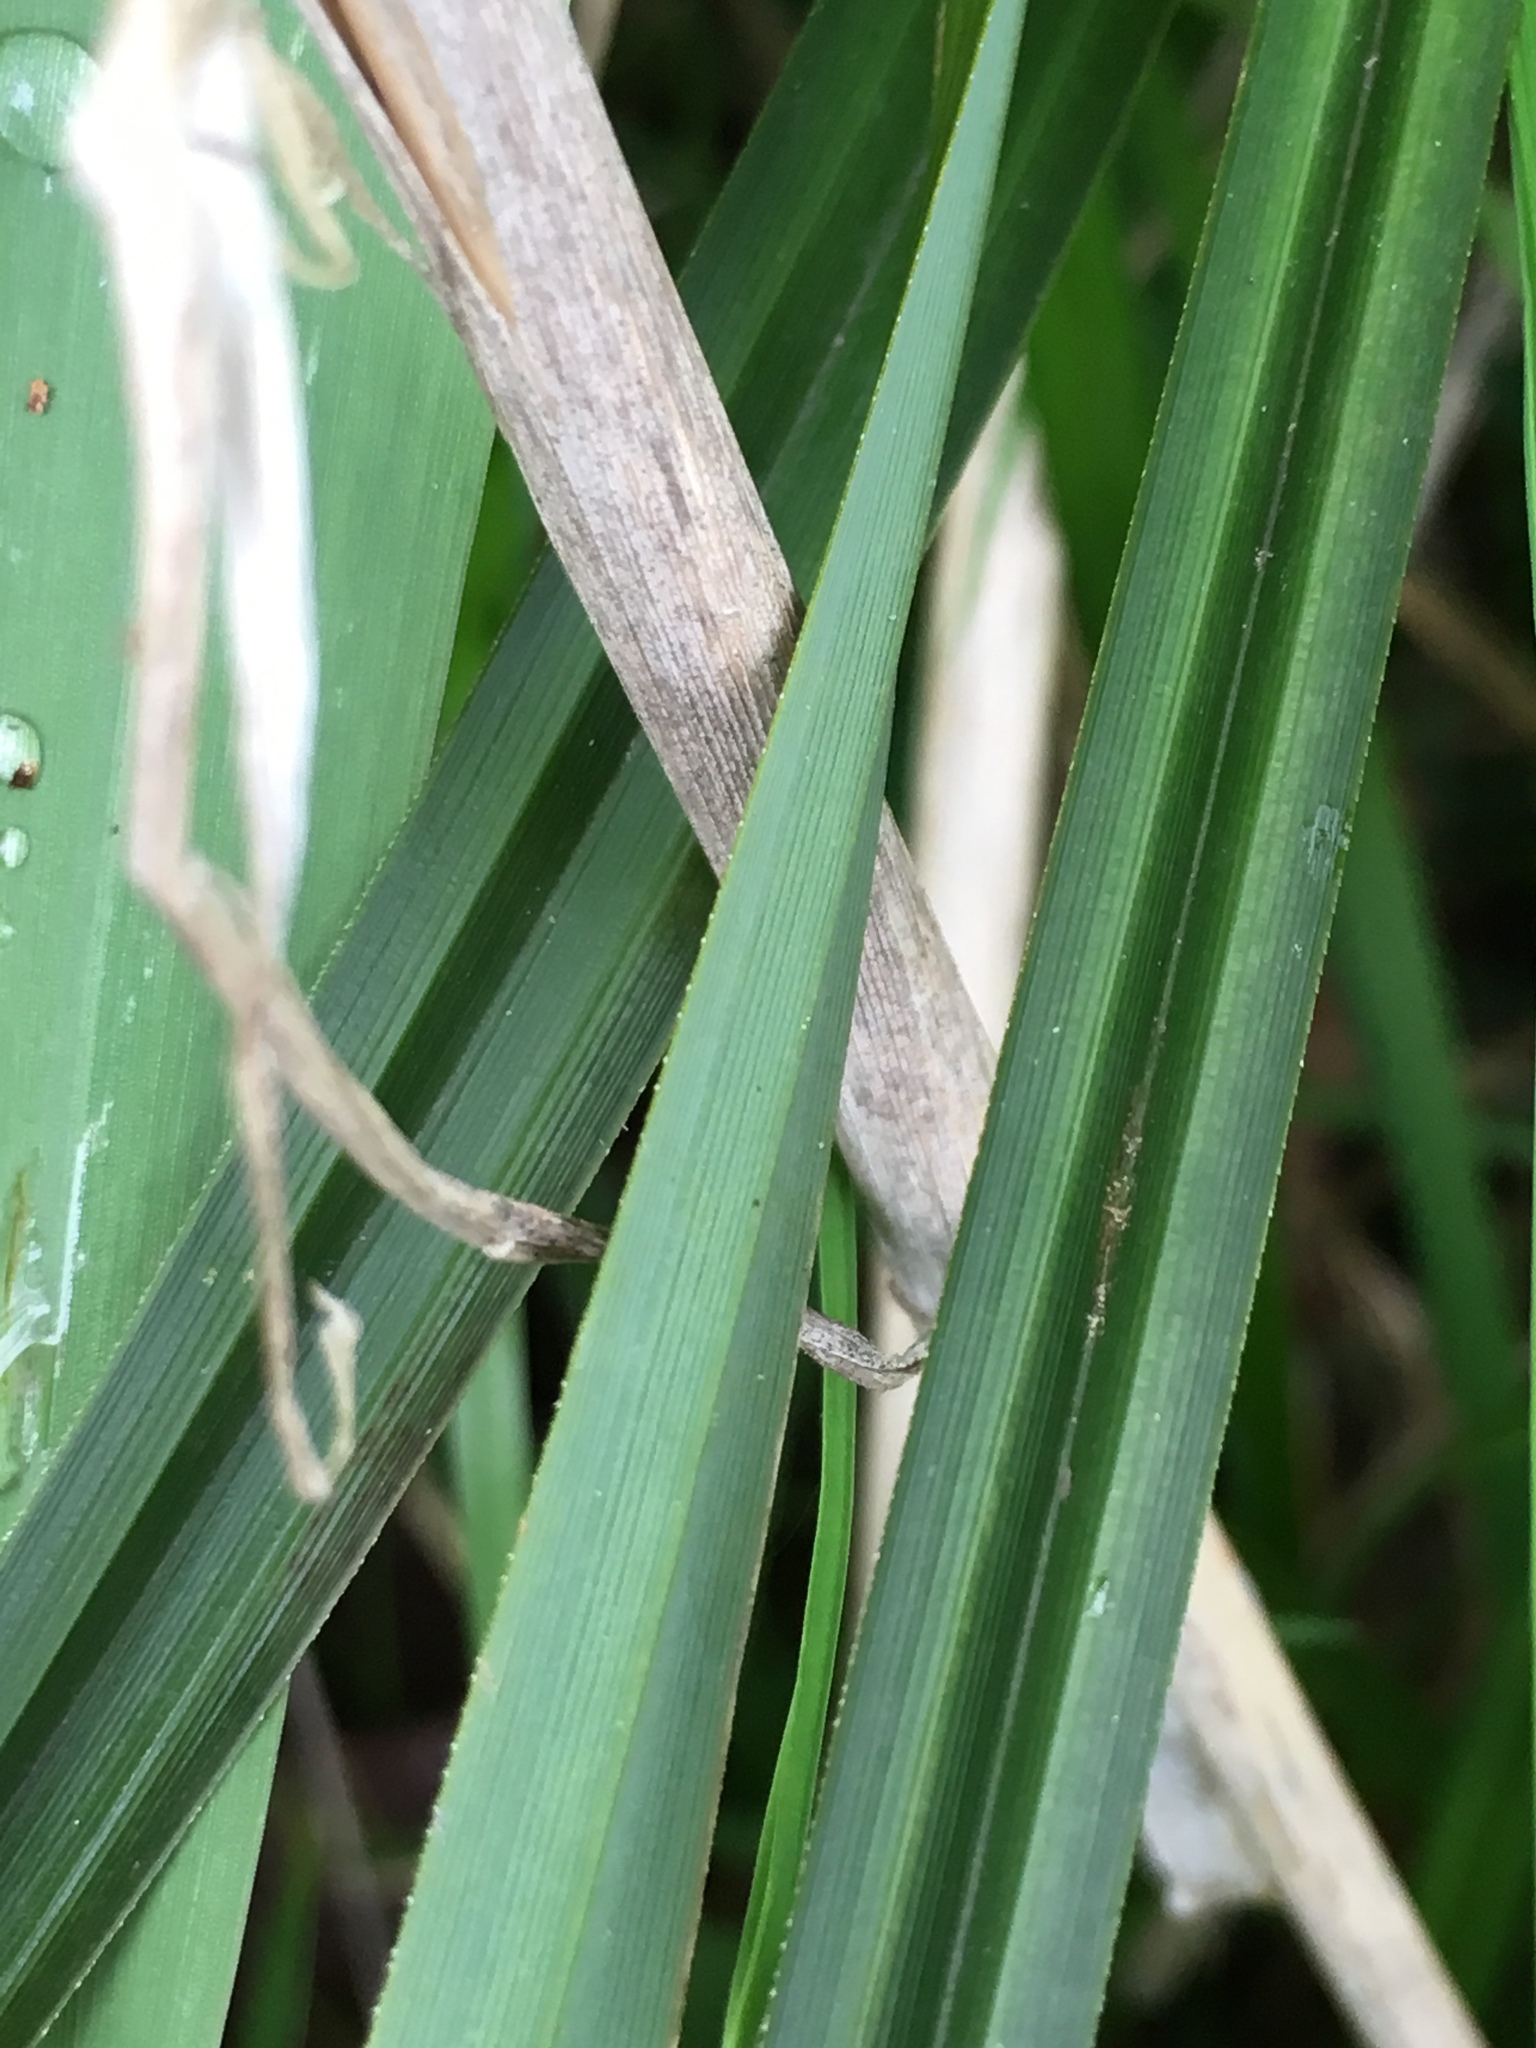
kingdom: Plantae
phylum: Tracheophyta
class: Liliopsida
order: Poales
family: Cyperaceae
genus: Carex
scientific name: Carex obnupta
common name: Slough sedge
